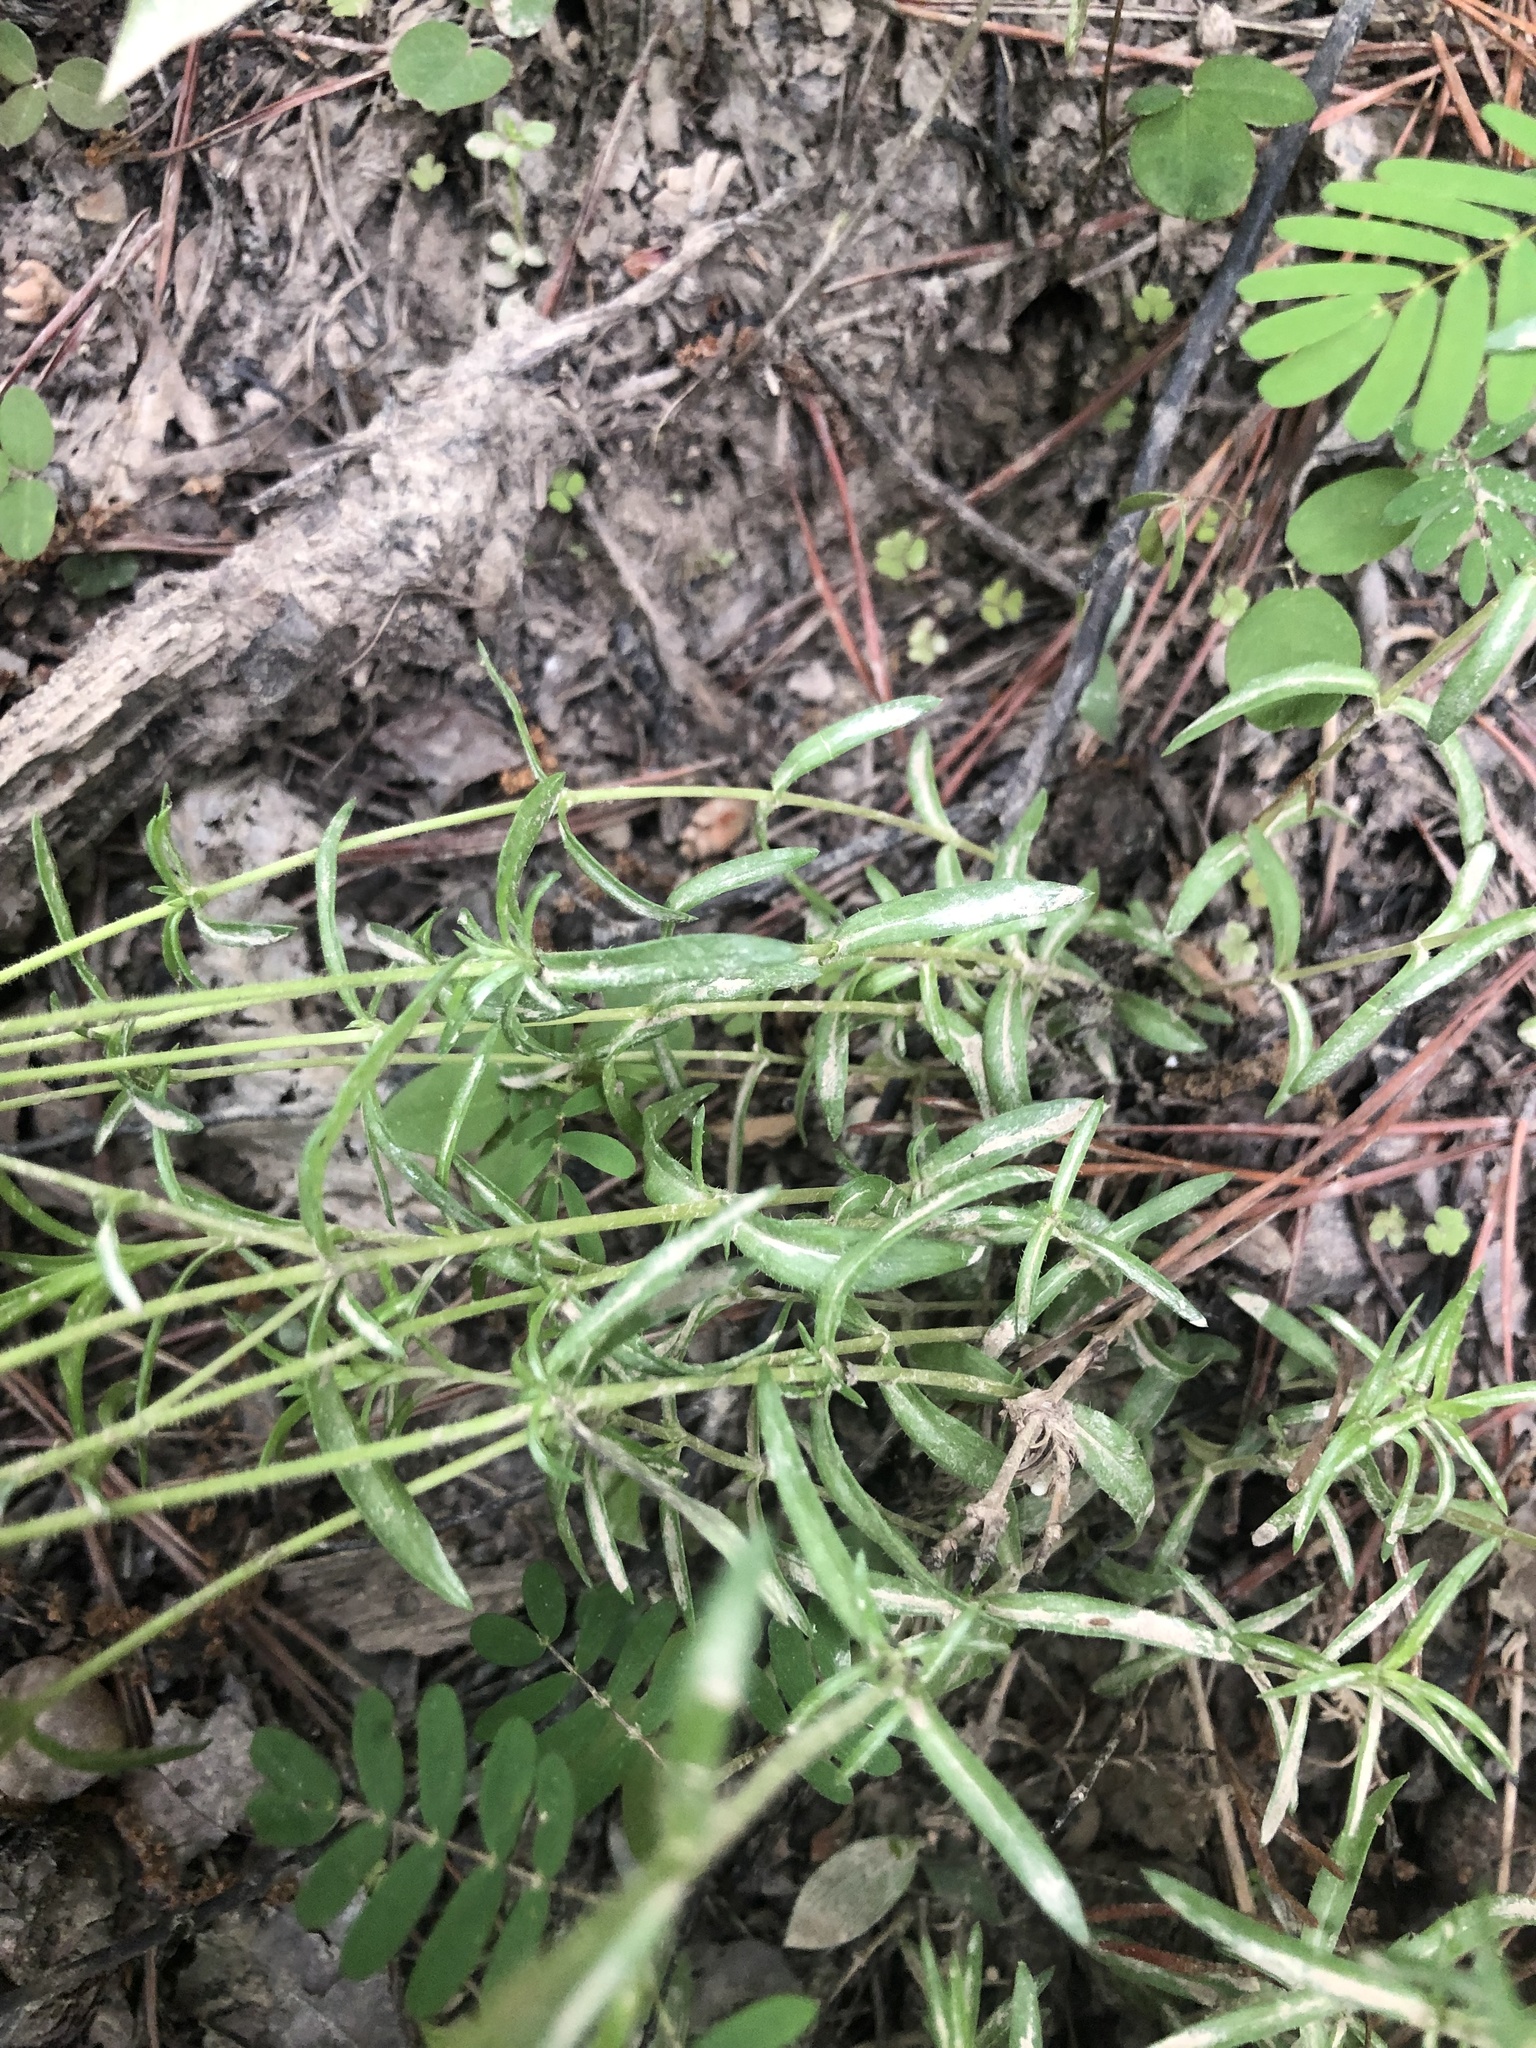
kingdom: Plantae
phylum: Tracheophyta
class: Magnoliopsida
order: Ericales
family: Polemoniaceae
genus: Phlox
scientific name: Phlox nivalis
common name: Trailing phlox
